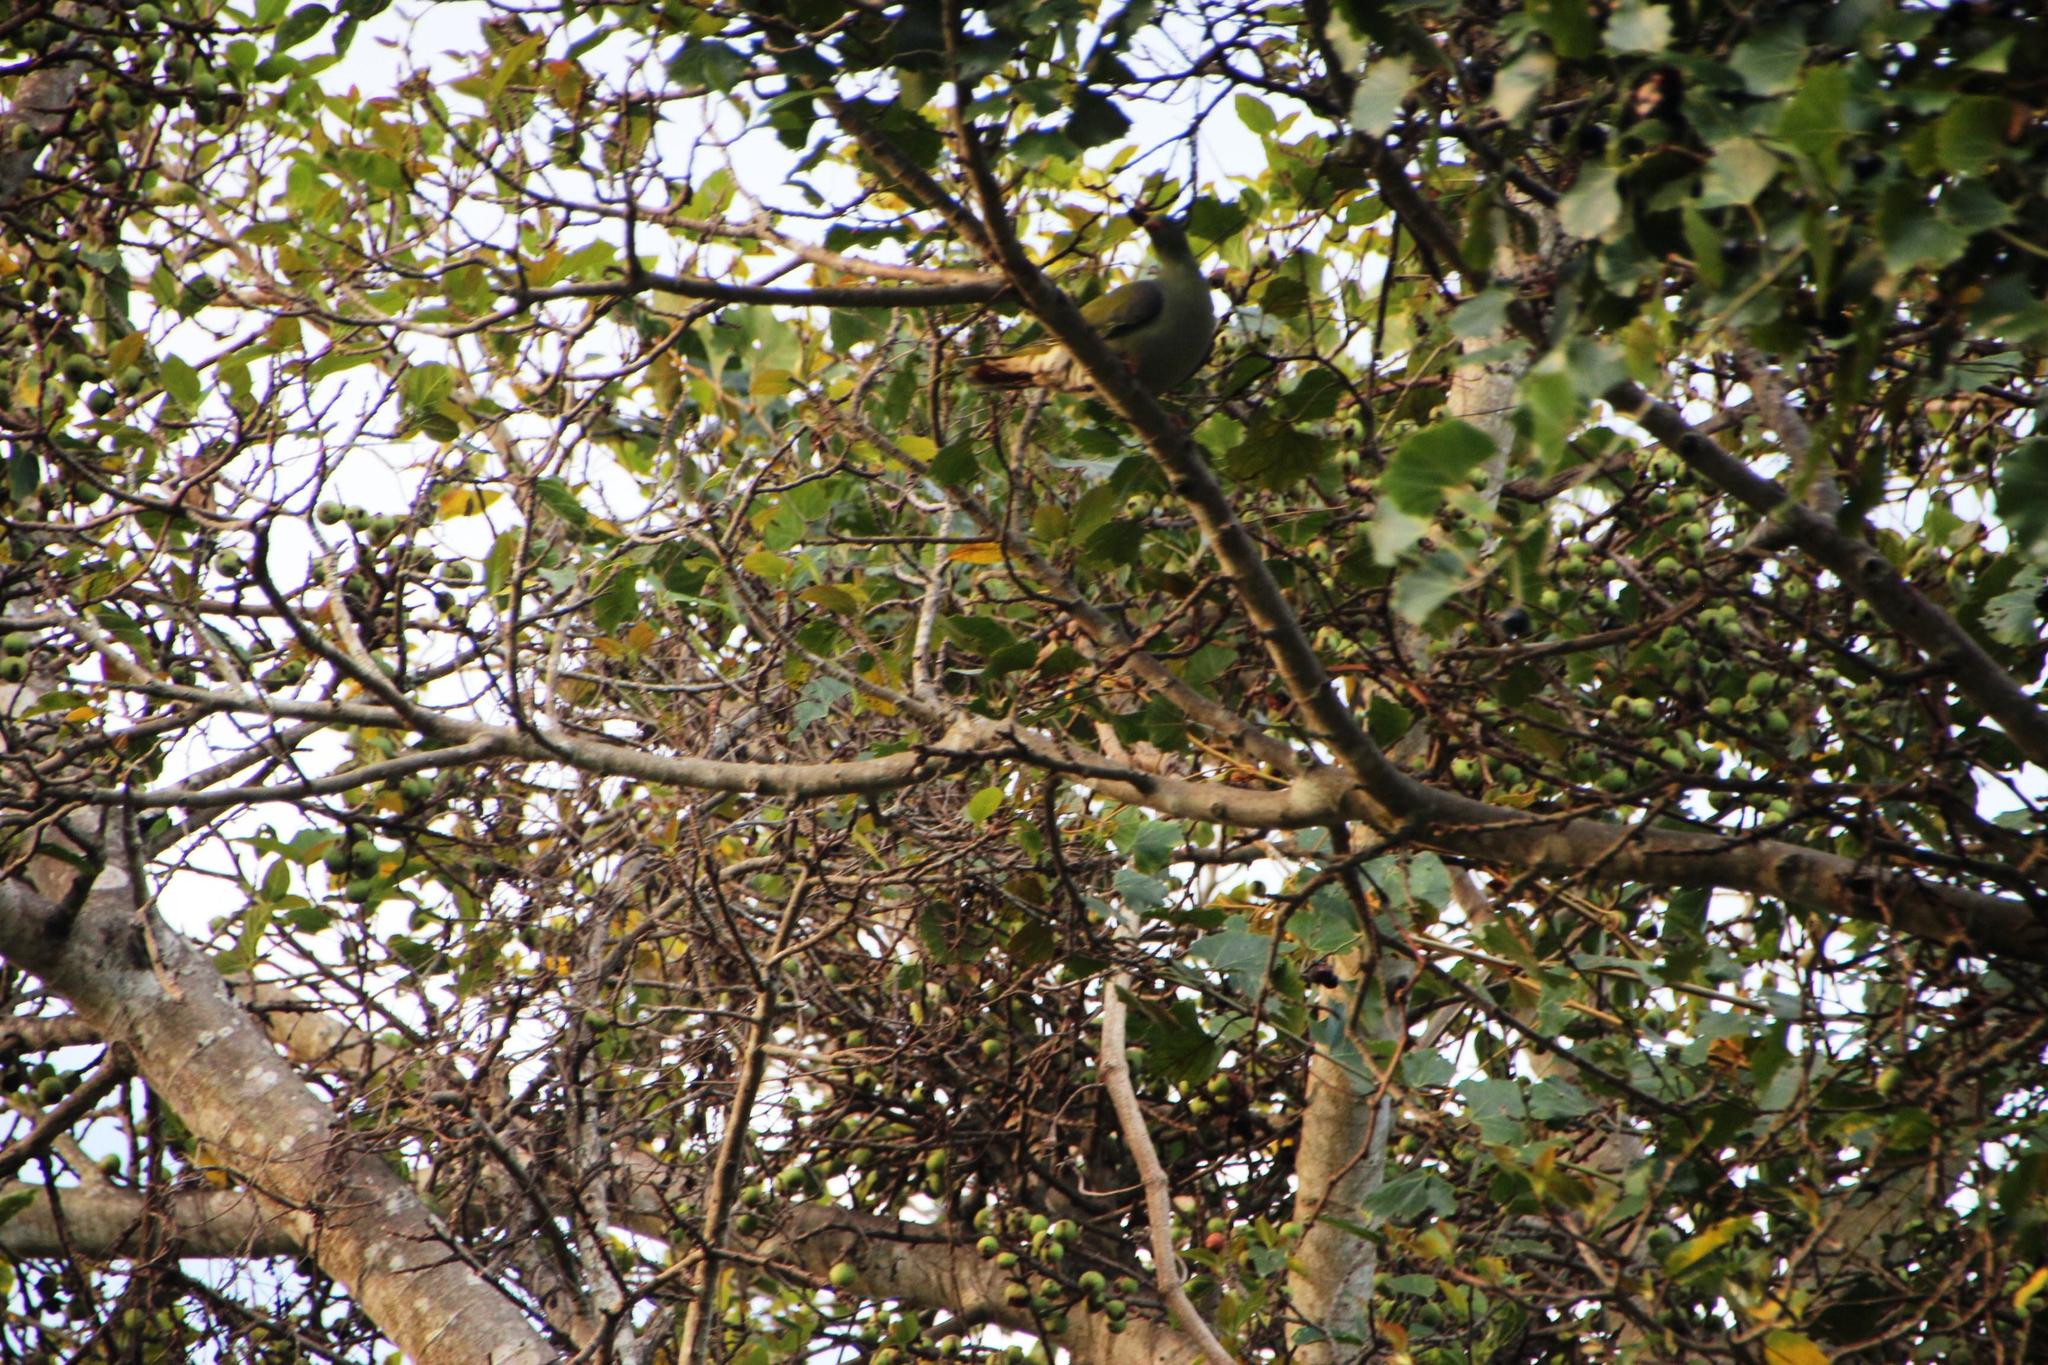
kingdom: Plantae
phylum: Tracheophyta
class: Magnoliopsida
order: Rosales
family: Moraceae
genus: Ficus
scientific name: Ficus sur
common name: Cape fig
